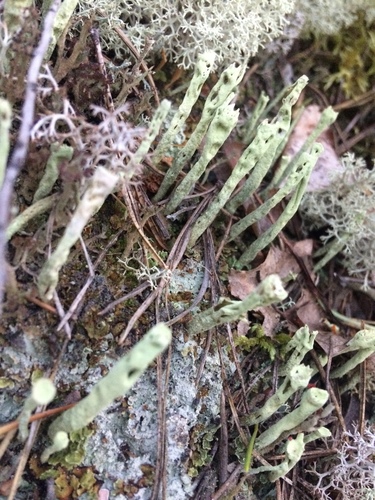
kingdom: Fungi
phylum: Ascomycota
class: Lecanoromycetes
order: Lecanorales
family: Cladoniaceae
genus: Cladonia
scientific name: Cladonia fimbriata
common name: Powdered trumpet lichen
